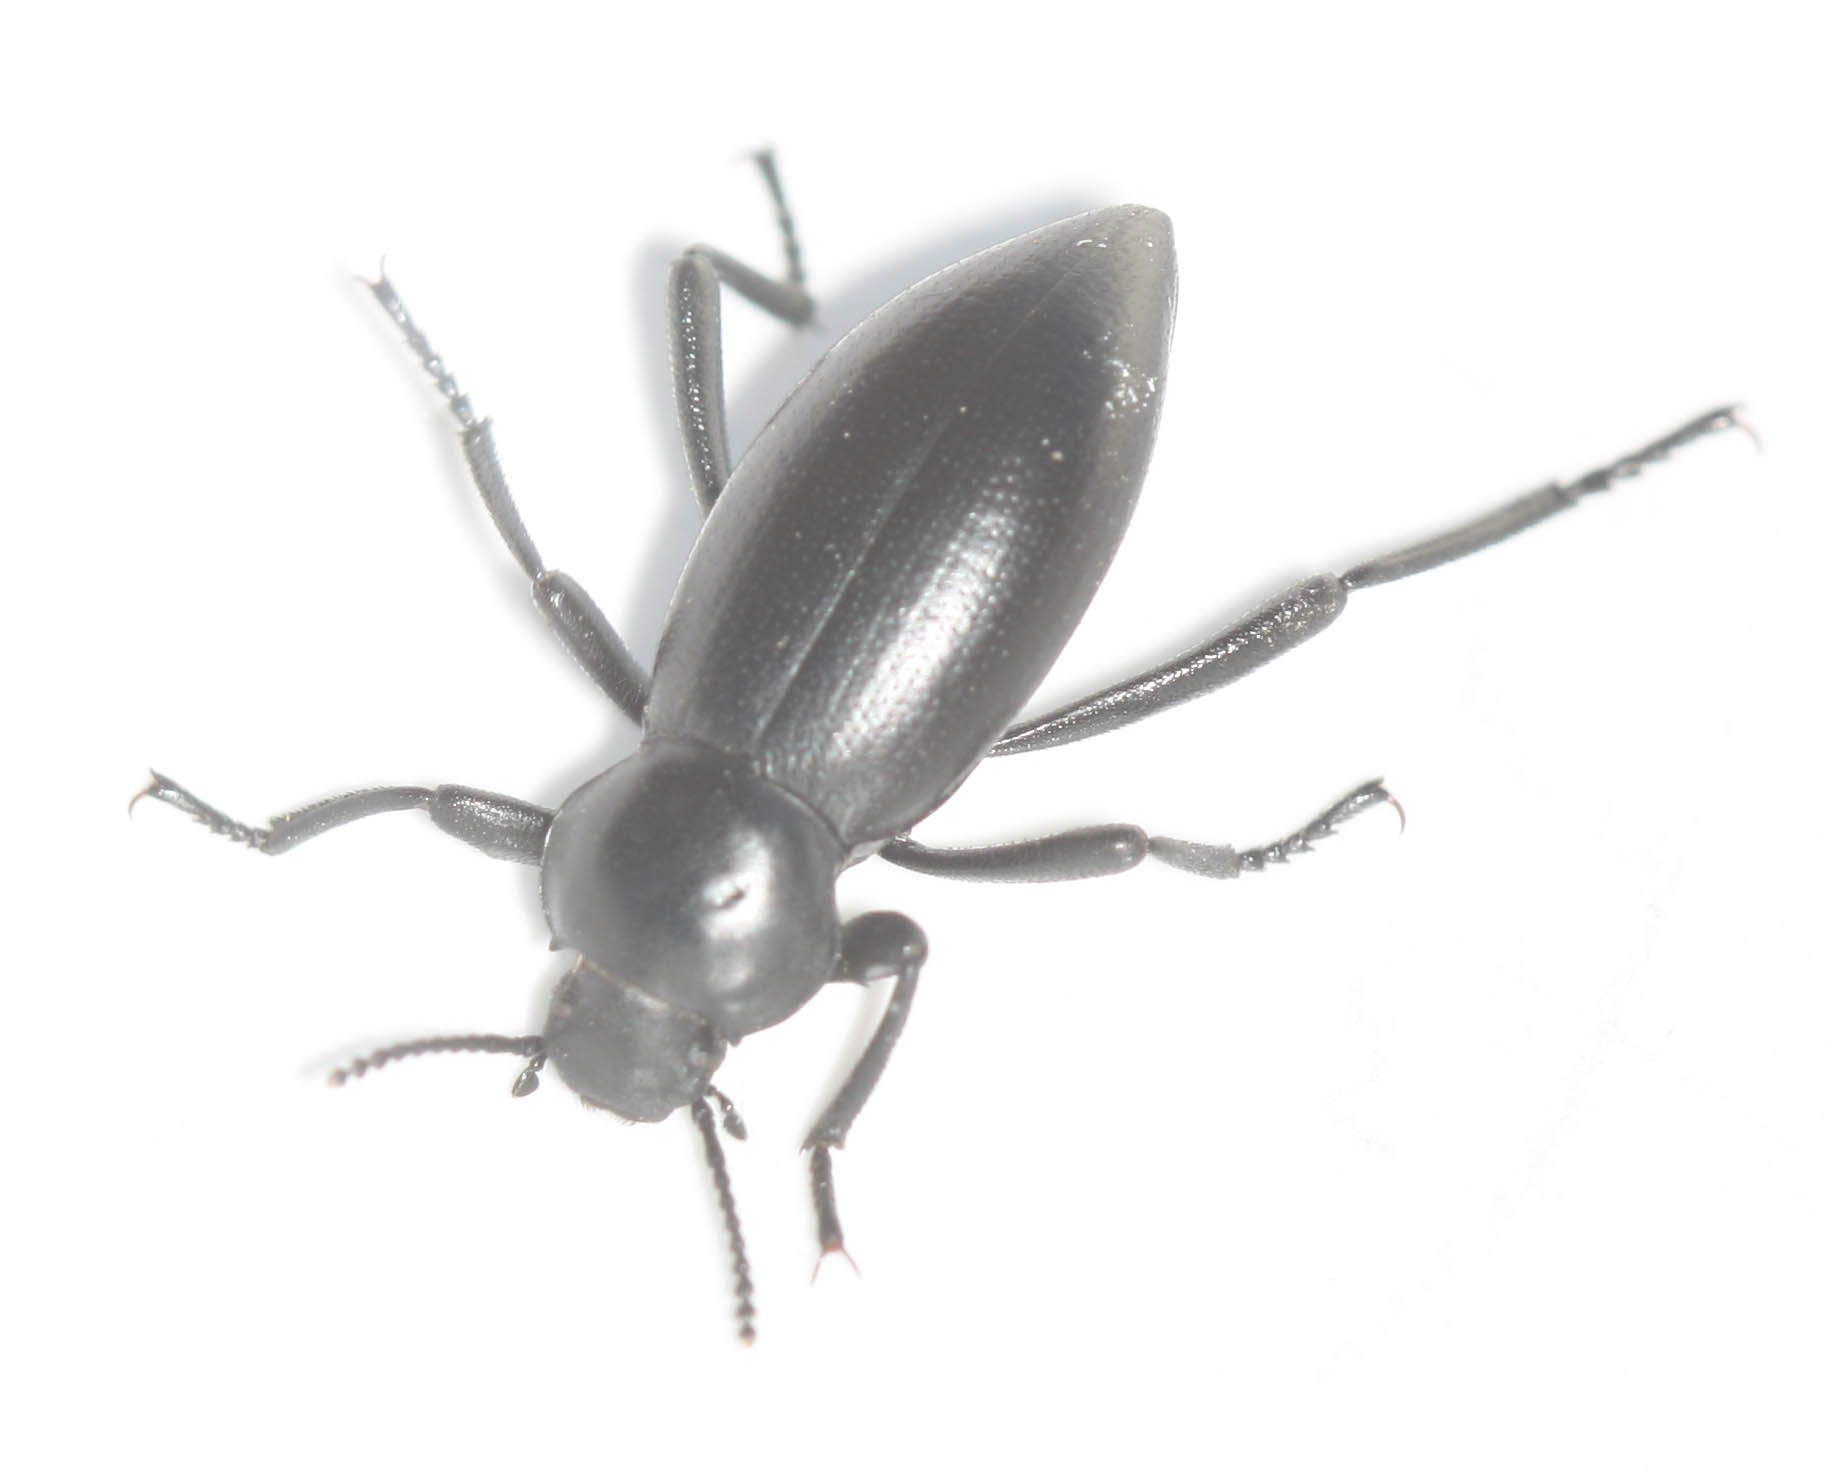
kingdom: Animalia
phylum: Arthropoda
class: Insecta
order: Coleoptera
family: Tenebrionidae
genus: Eleodes
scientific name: Eleodes dentipes
